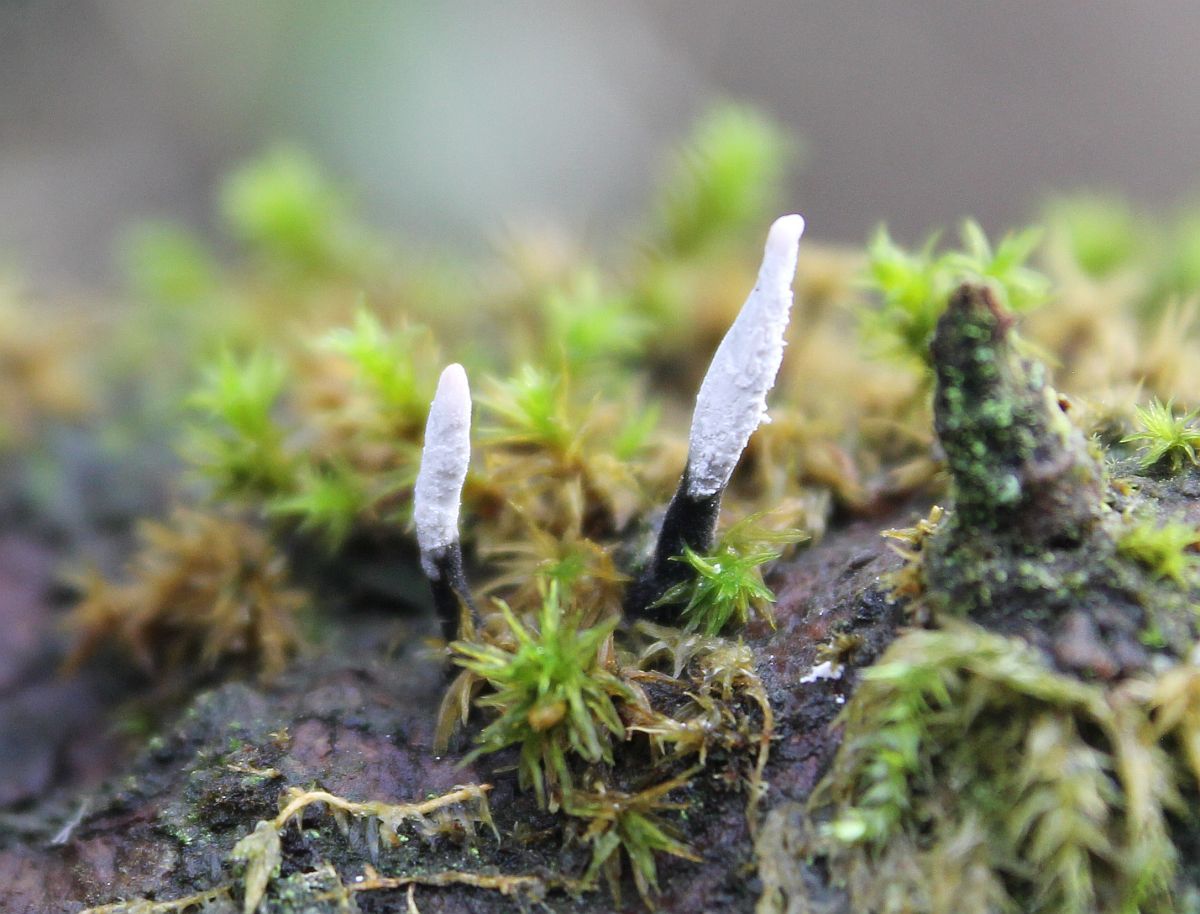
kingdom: Fungi
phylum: Ascomycota
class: Sordariomycetes
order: Xylariales
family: Xylariaceae
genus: Xylaria
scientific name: Xylaria hypoxylon
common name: Candle-snuff fungus
